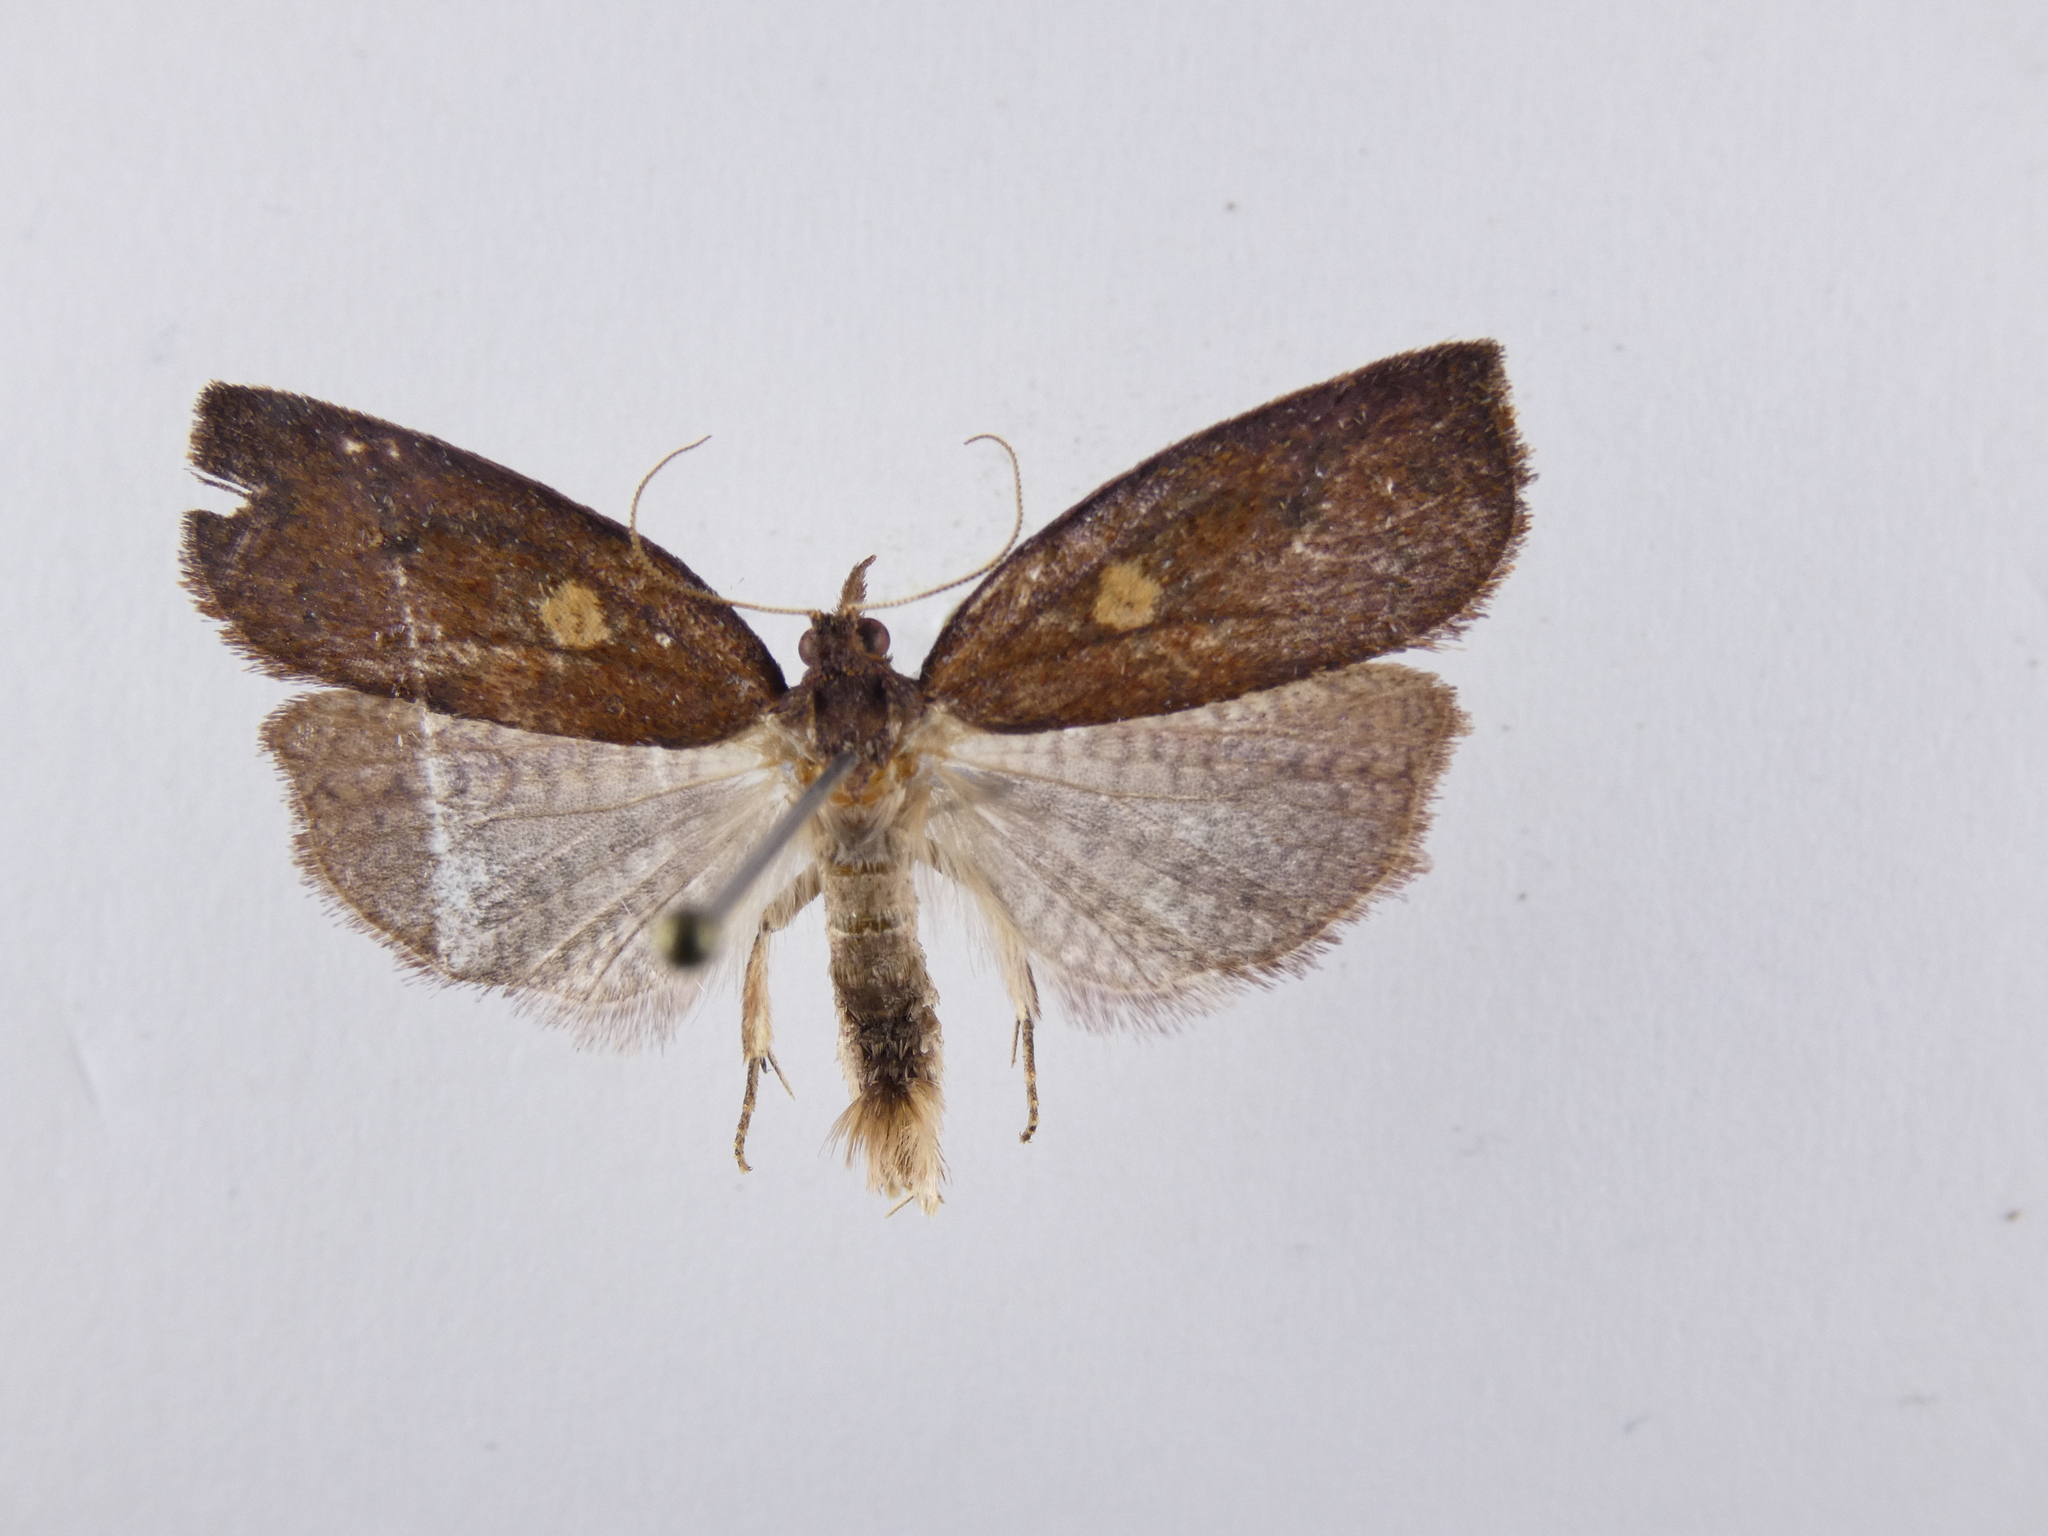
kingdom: Animalia
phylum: Arthropoda
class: Insecta
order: Lepidoptera
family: Tortricidae
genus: Planotortrix
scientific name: Planotortrix excessana
